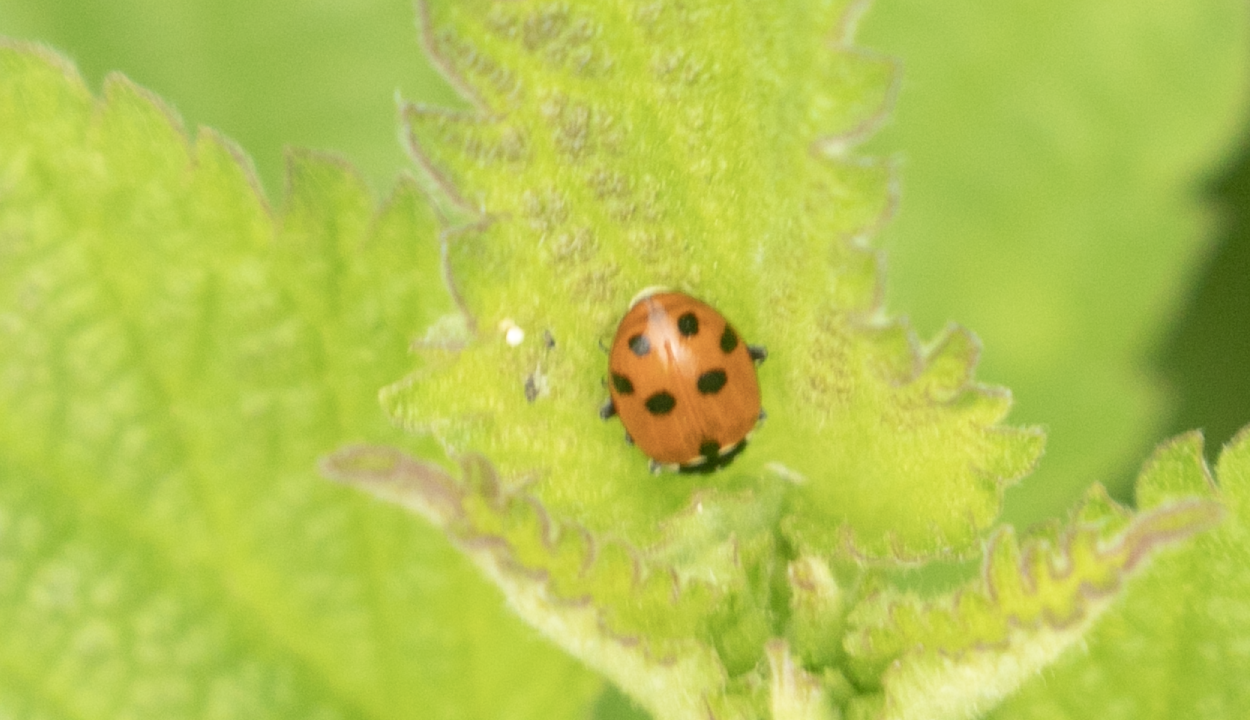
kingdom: Animalia
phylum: Arthropoda
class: Insecta
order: Coleoptera
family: Coccinellidae
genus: Hippodamia
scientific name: Hippodamia variegata
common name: Ladybird beetle
